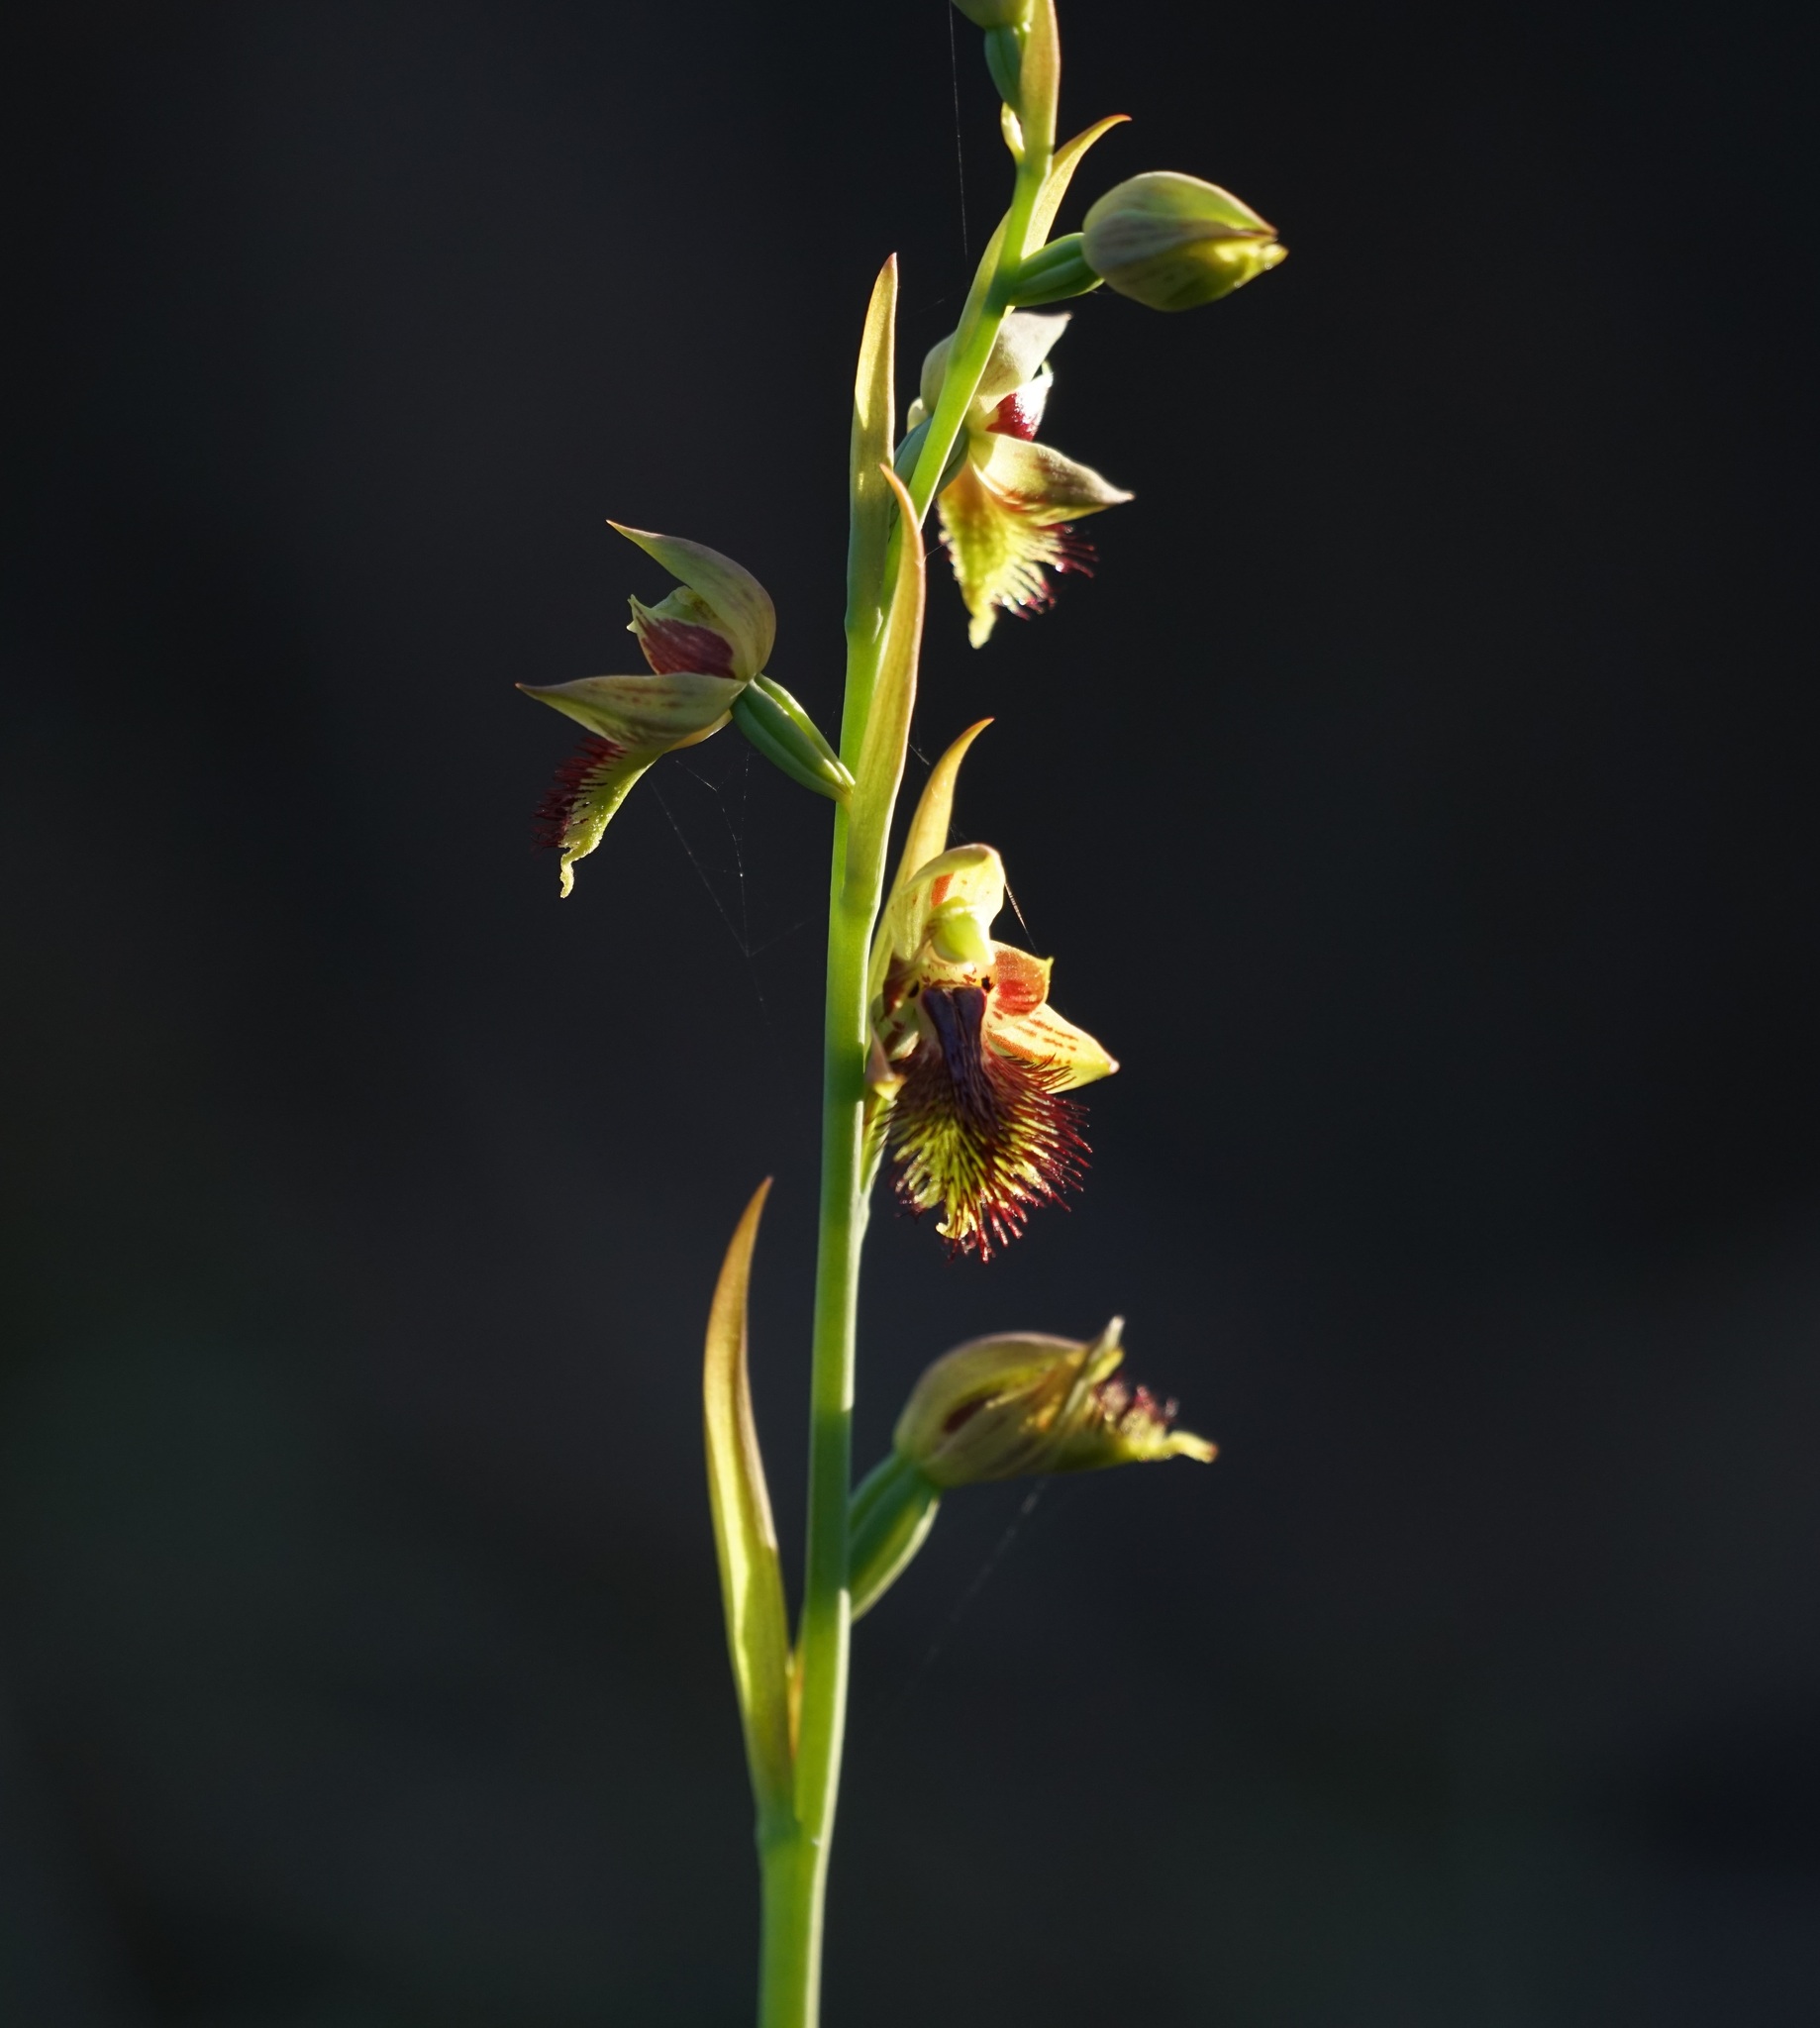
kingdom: Plantae
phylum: Tracheophyta
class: Liliopsida
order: Asparagales
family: Orchidaceae
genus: Calochilus
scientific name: Calochilus campestris
